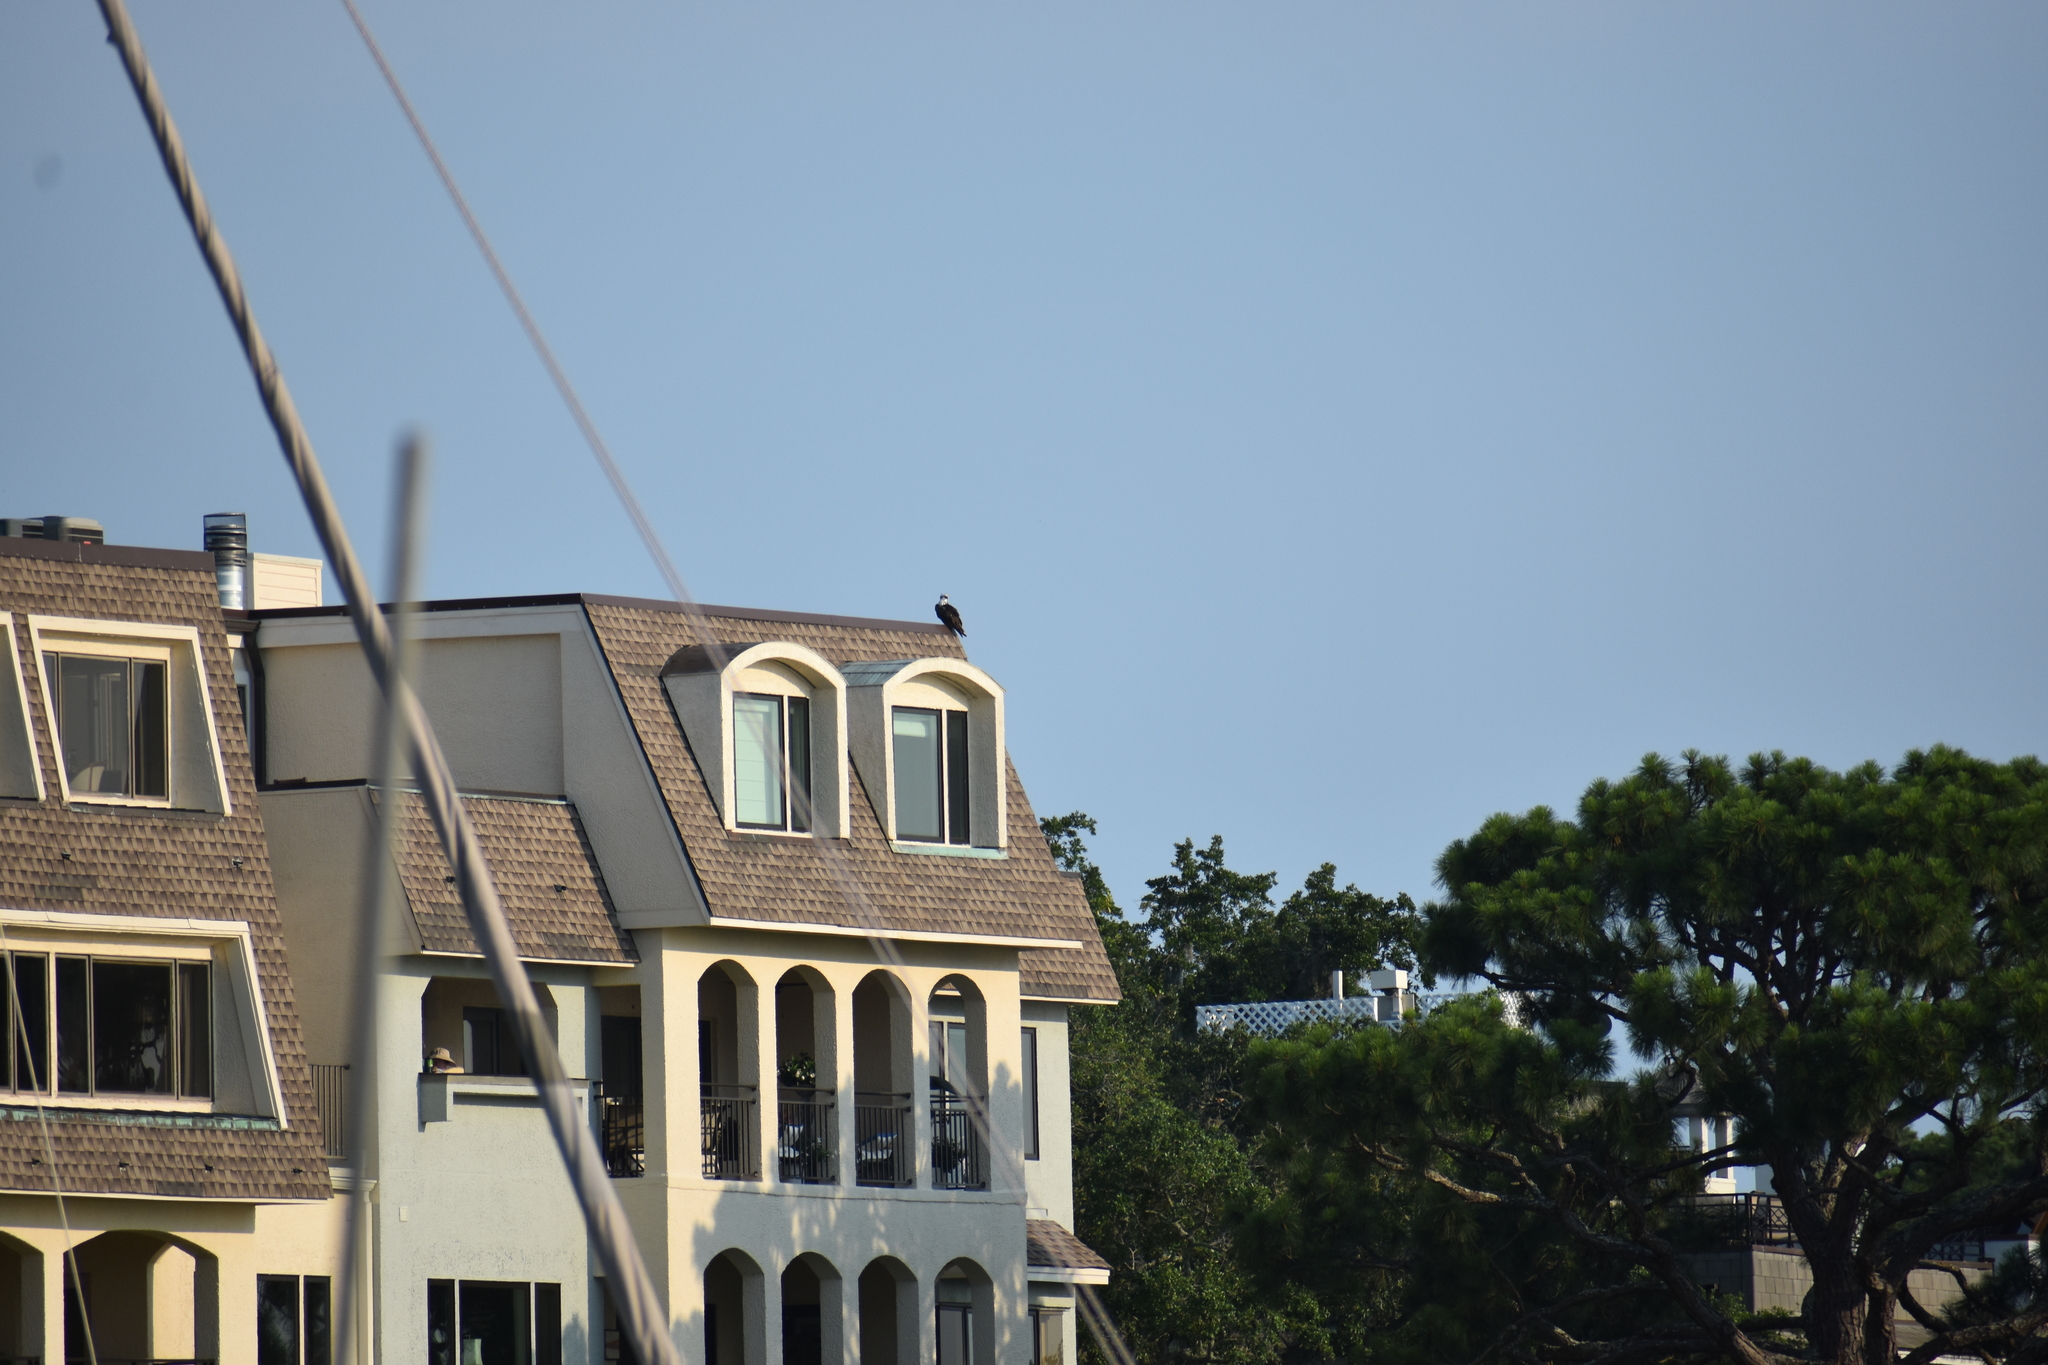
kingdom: Animalia
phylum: Chordata
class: Aves
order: Accipitriformes
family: Pandionidae
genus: Pandion
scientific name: Pandion haliaetus
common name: Osprey
